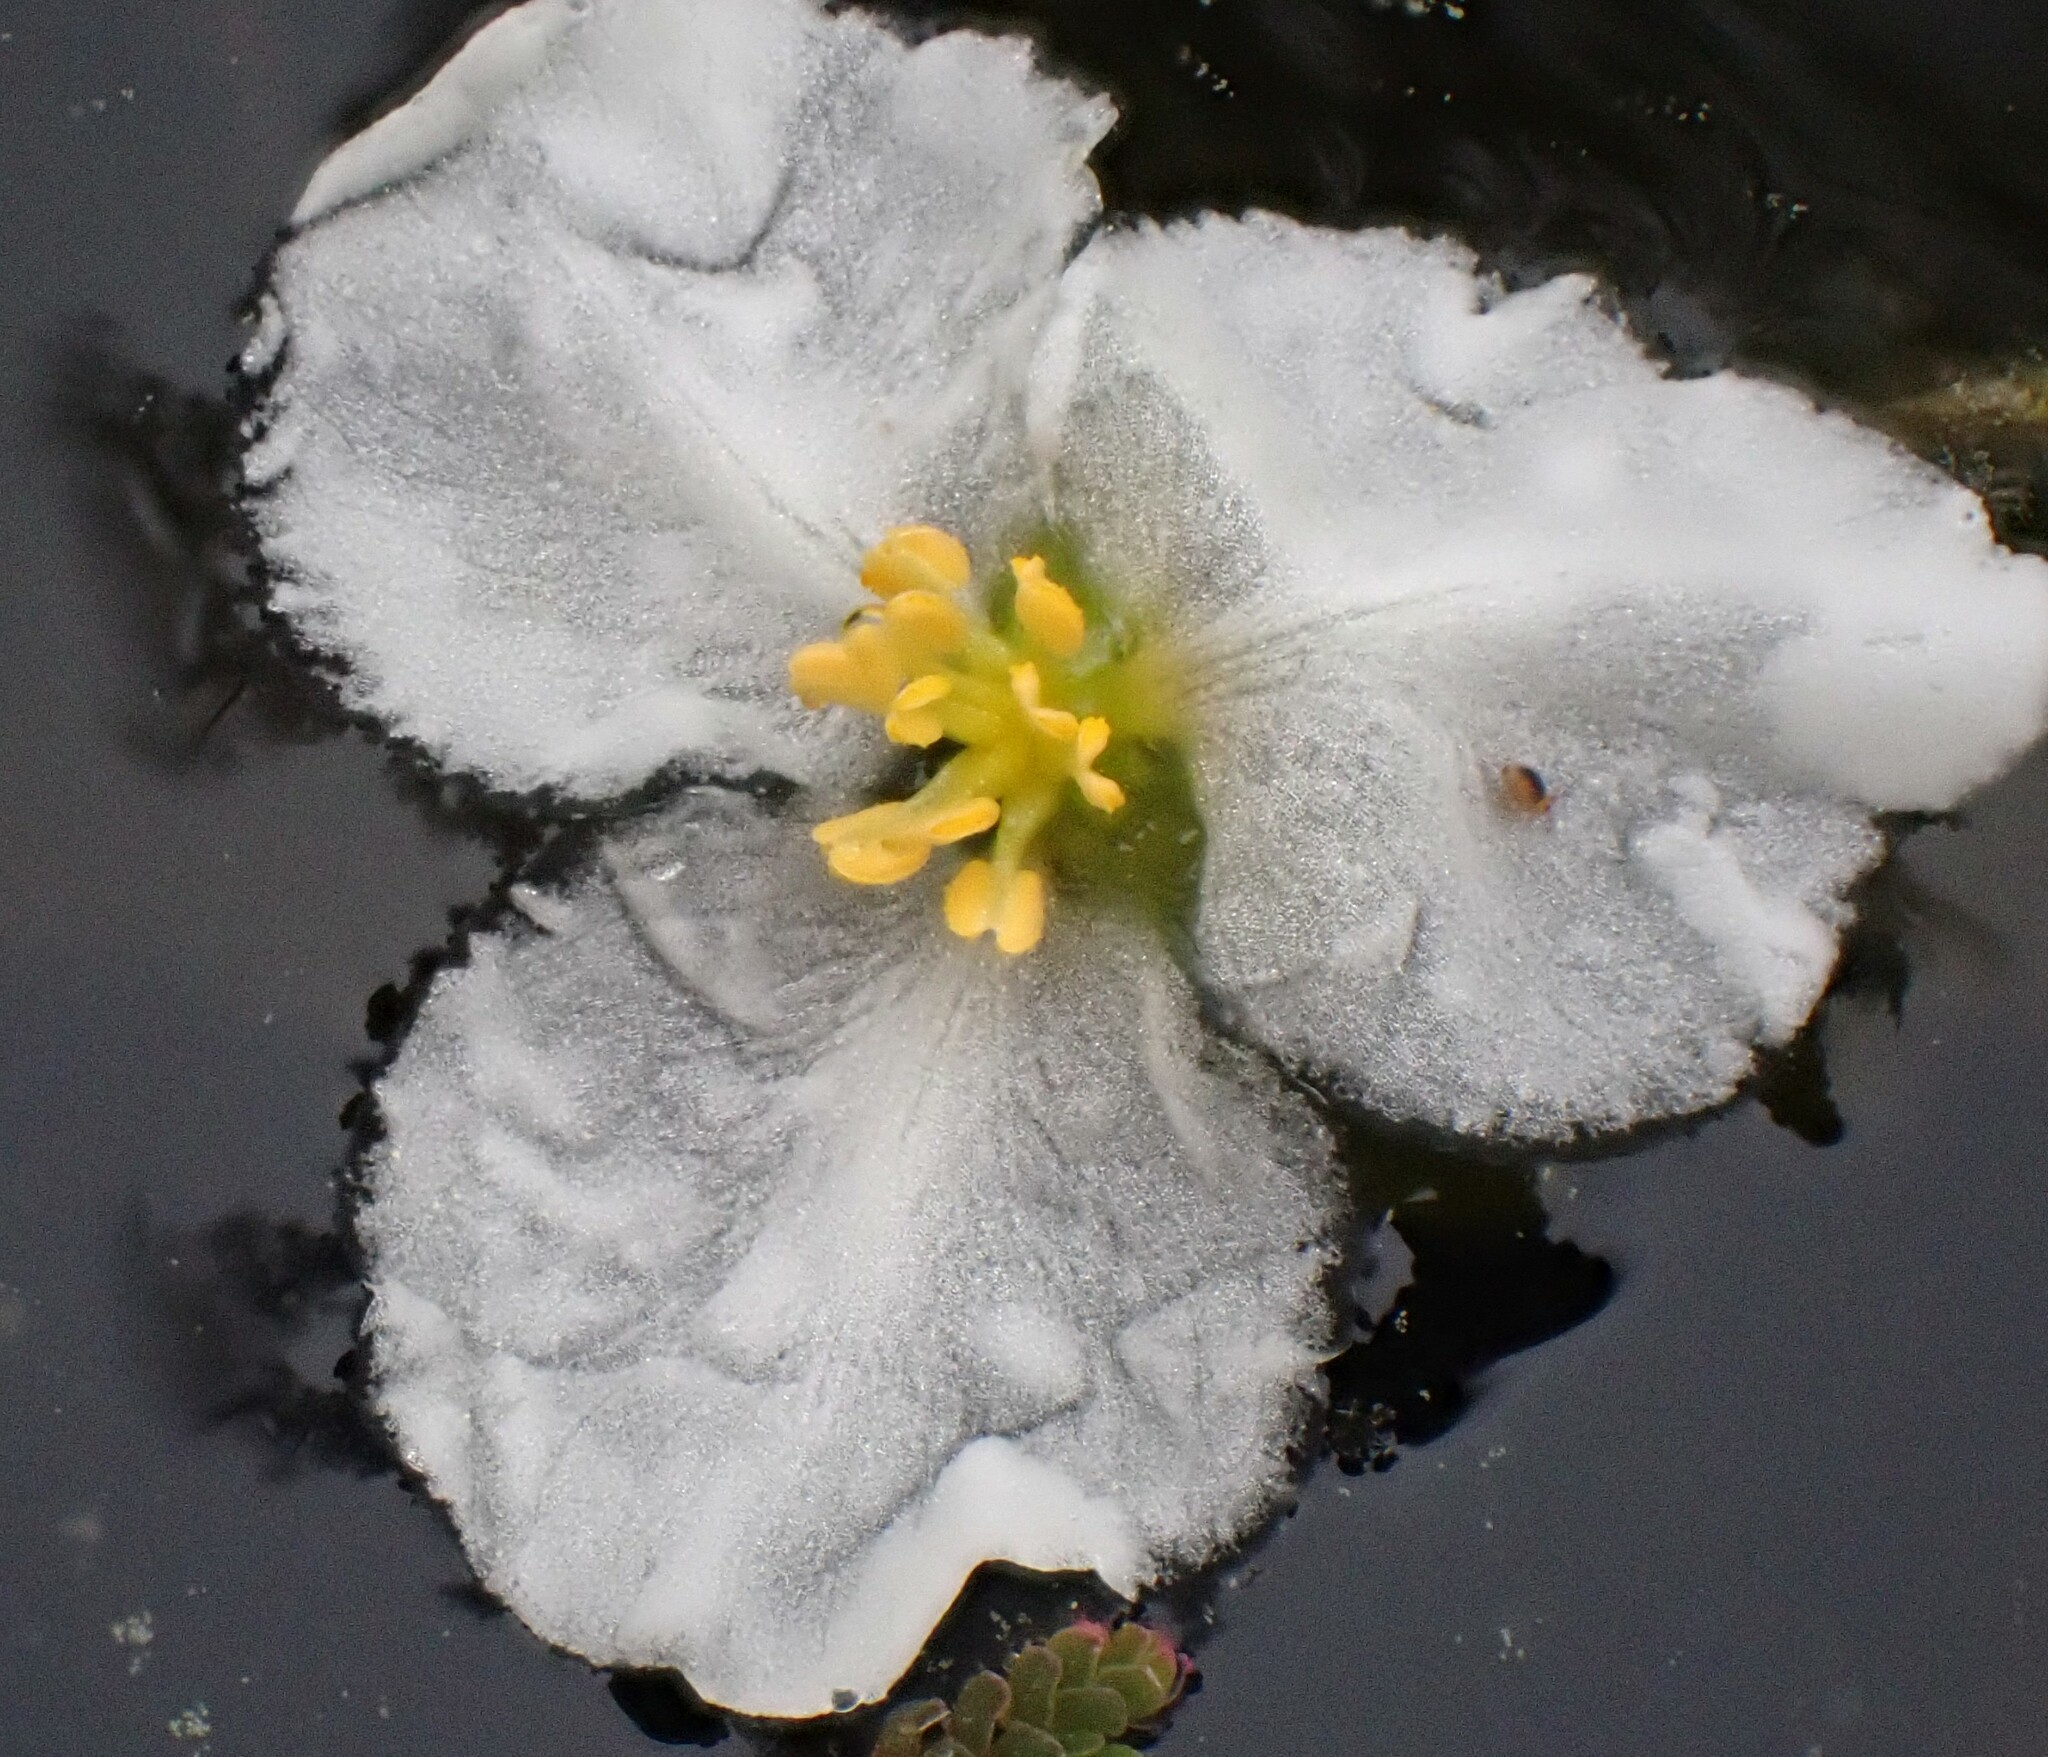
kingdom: Plantae
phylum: Tracheophyta
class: Liliopsida
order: Alismatales
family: Alismataceae
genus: Sagittaria
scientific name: Sagittaria kurziana
